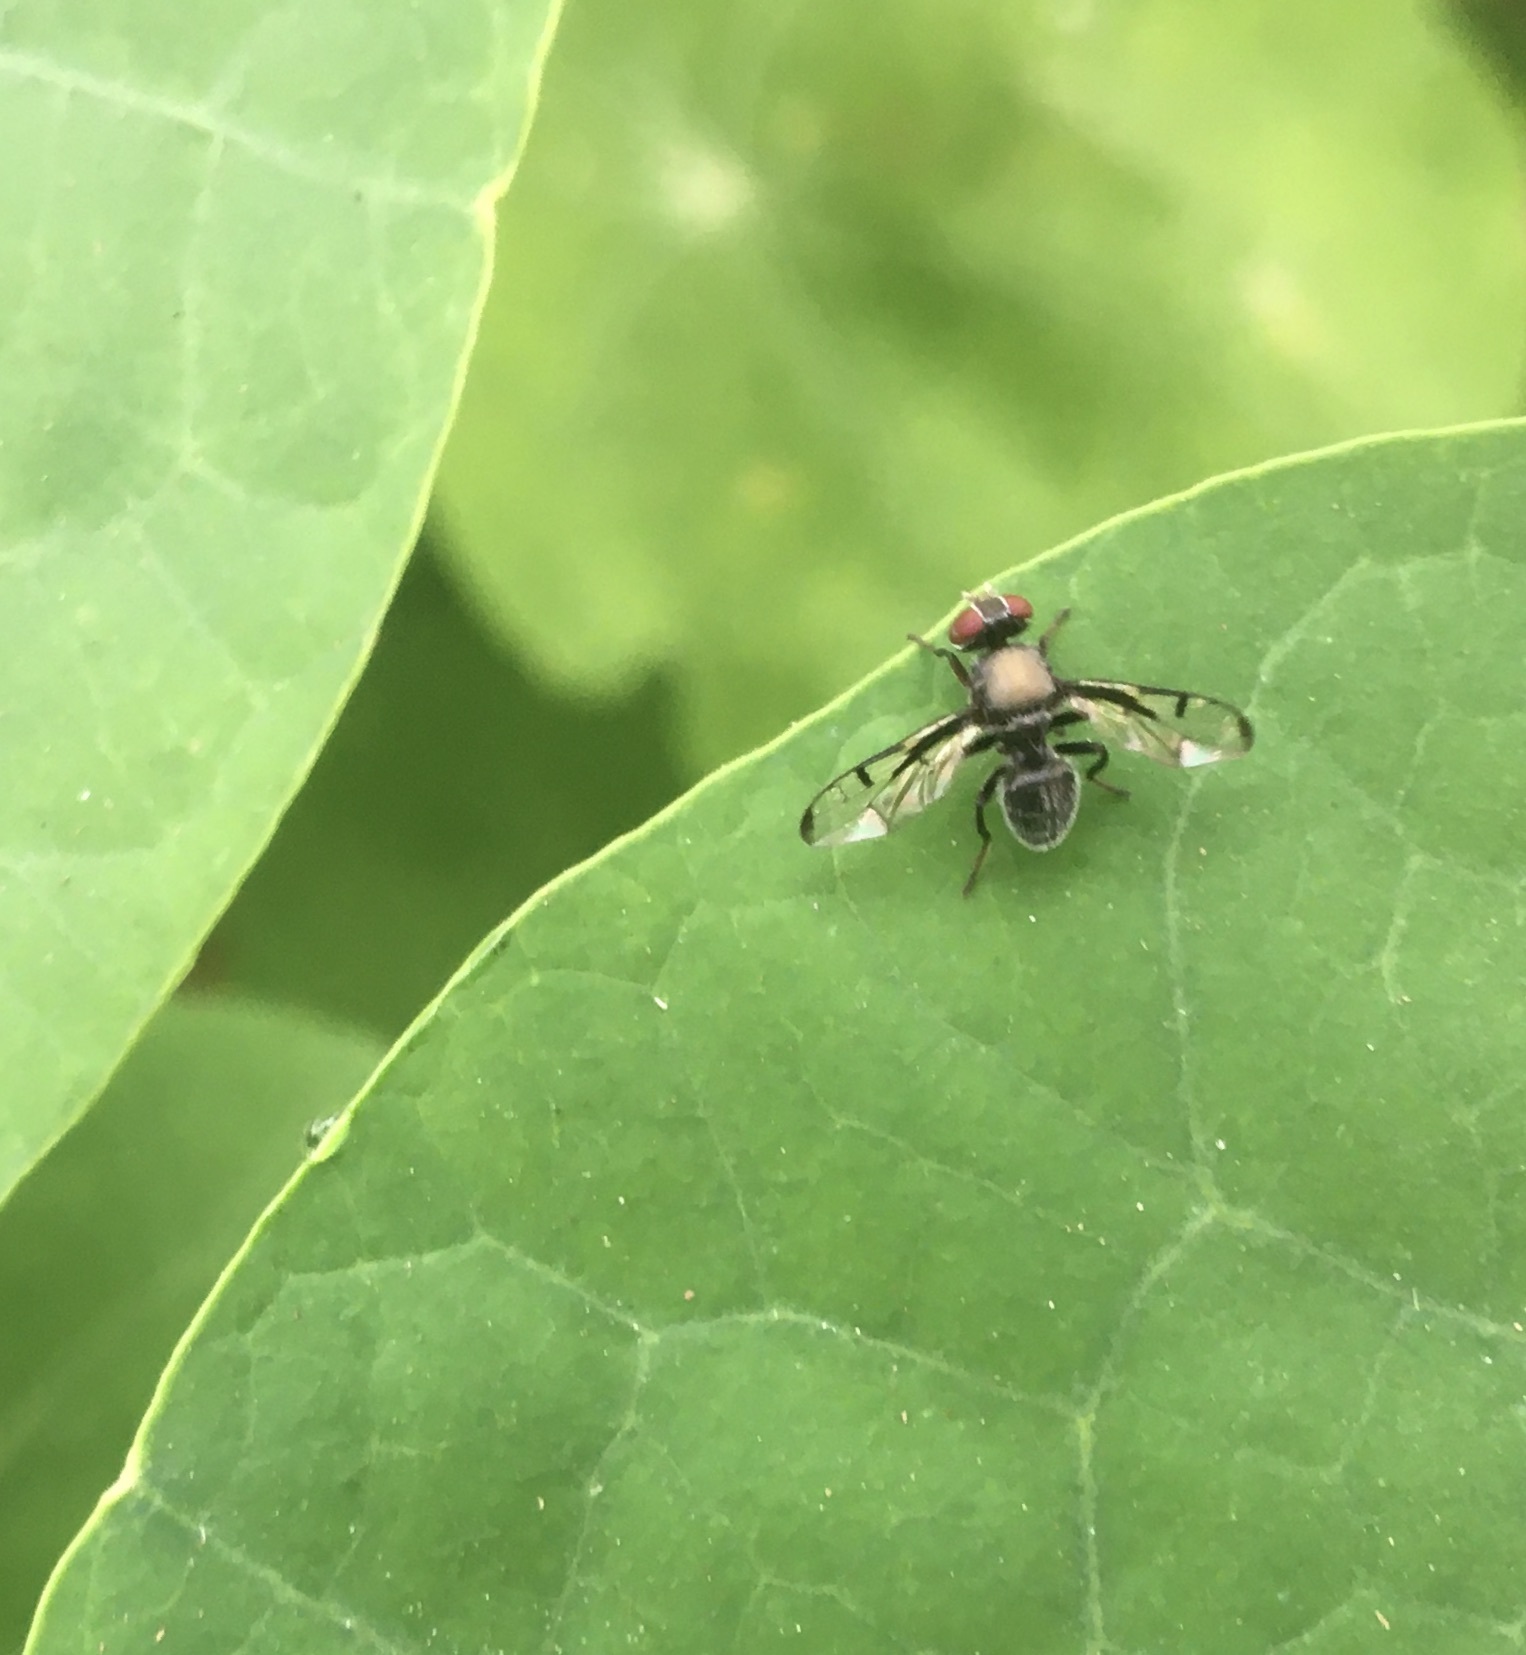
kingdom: Animalia
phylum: Arthropoda
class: Insecta
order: Diptera
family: Platystomatidae
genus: Pogonortalis
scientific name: Pogonortalis doclea
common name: Boatman fly
